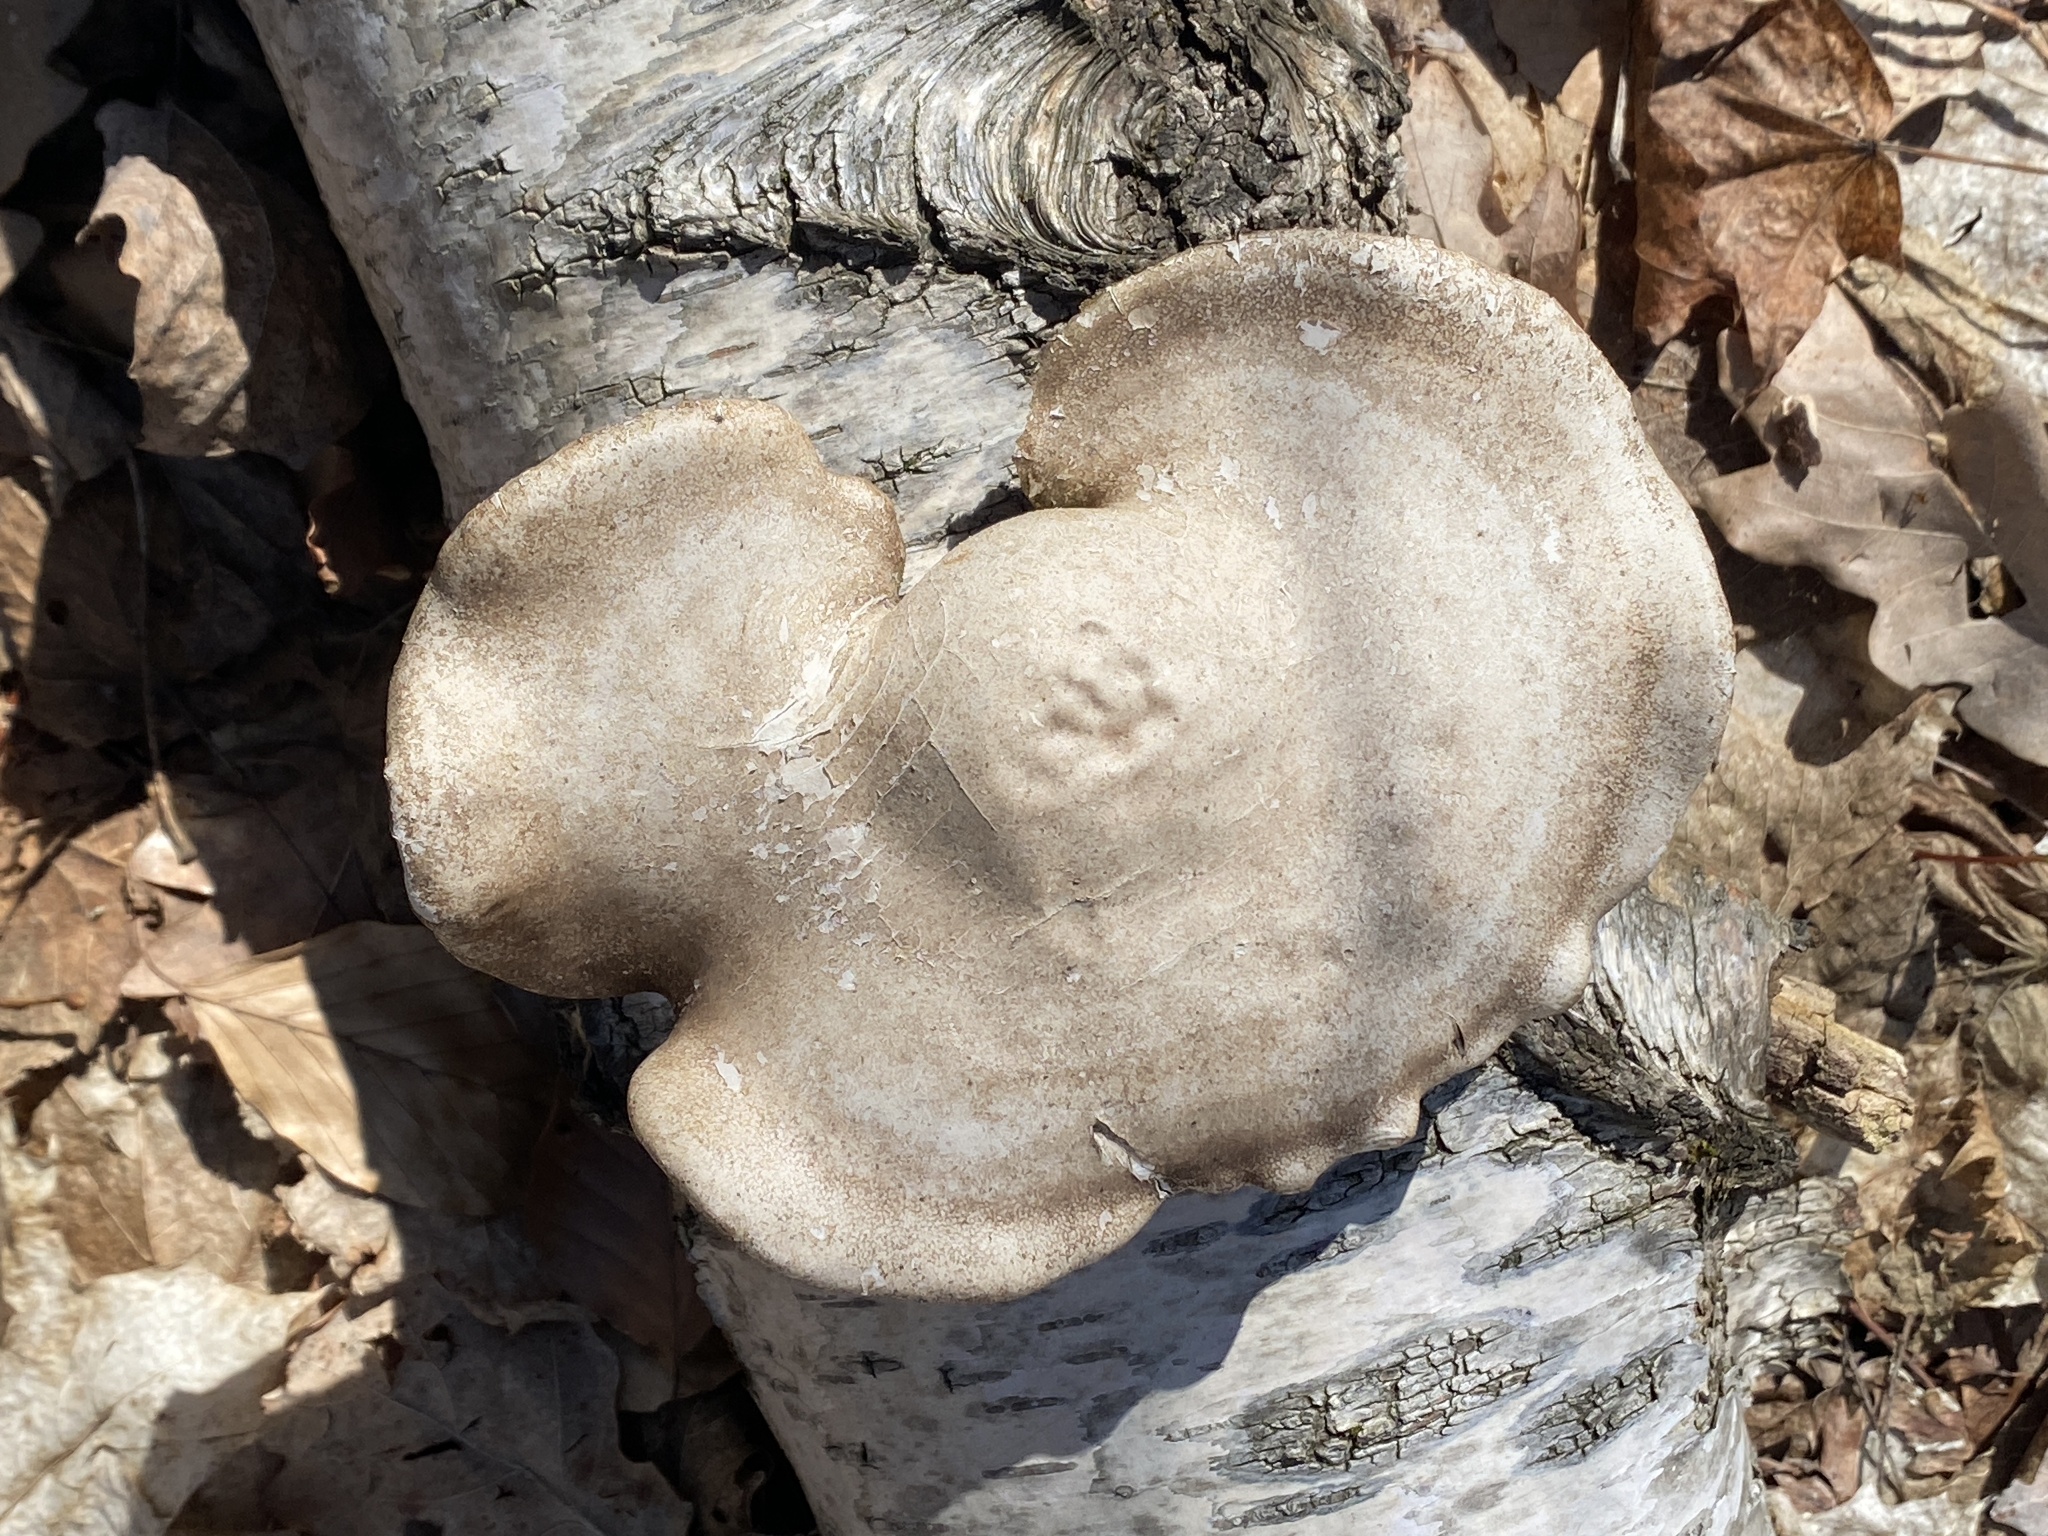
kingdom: Fungi
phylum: Basidiomycota
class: Agaricomycetes
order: Polyporales
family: Fomitopsidaceae
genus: Fomitopsis
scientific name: Fomitopsis betulina
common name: Birch polypore
